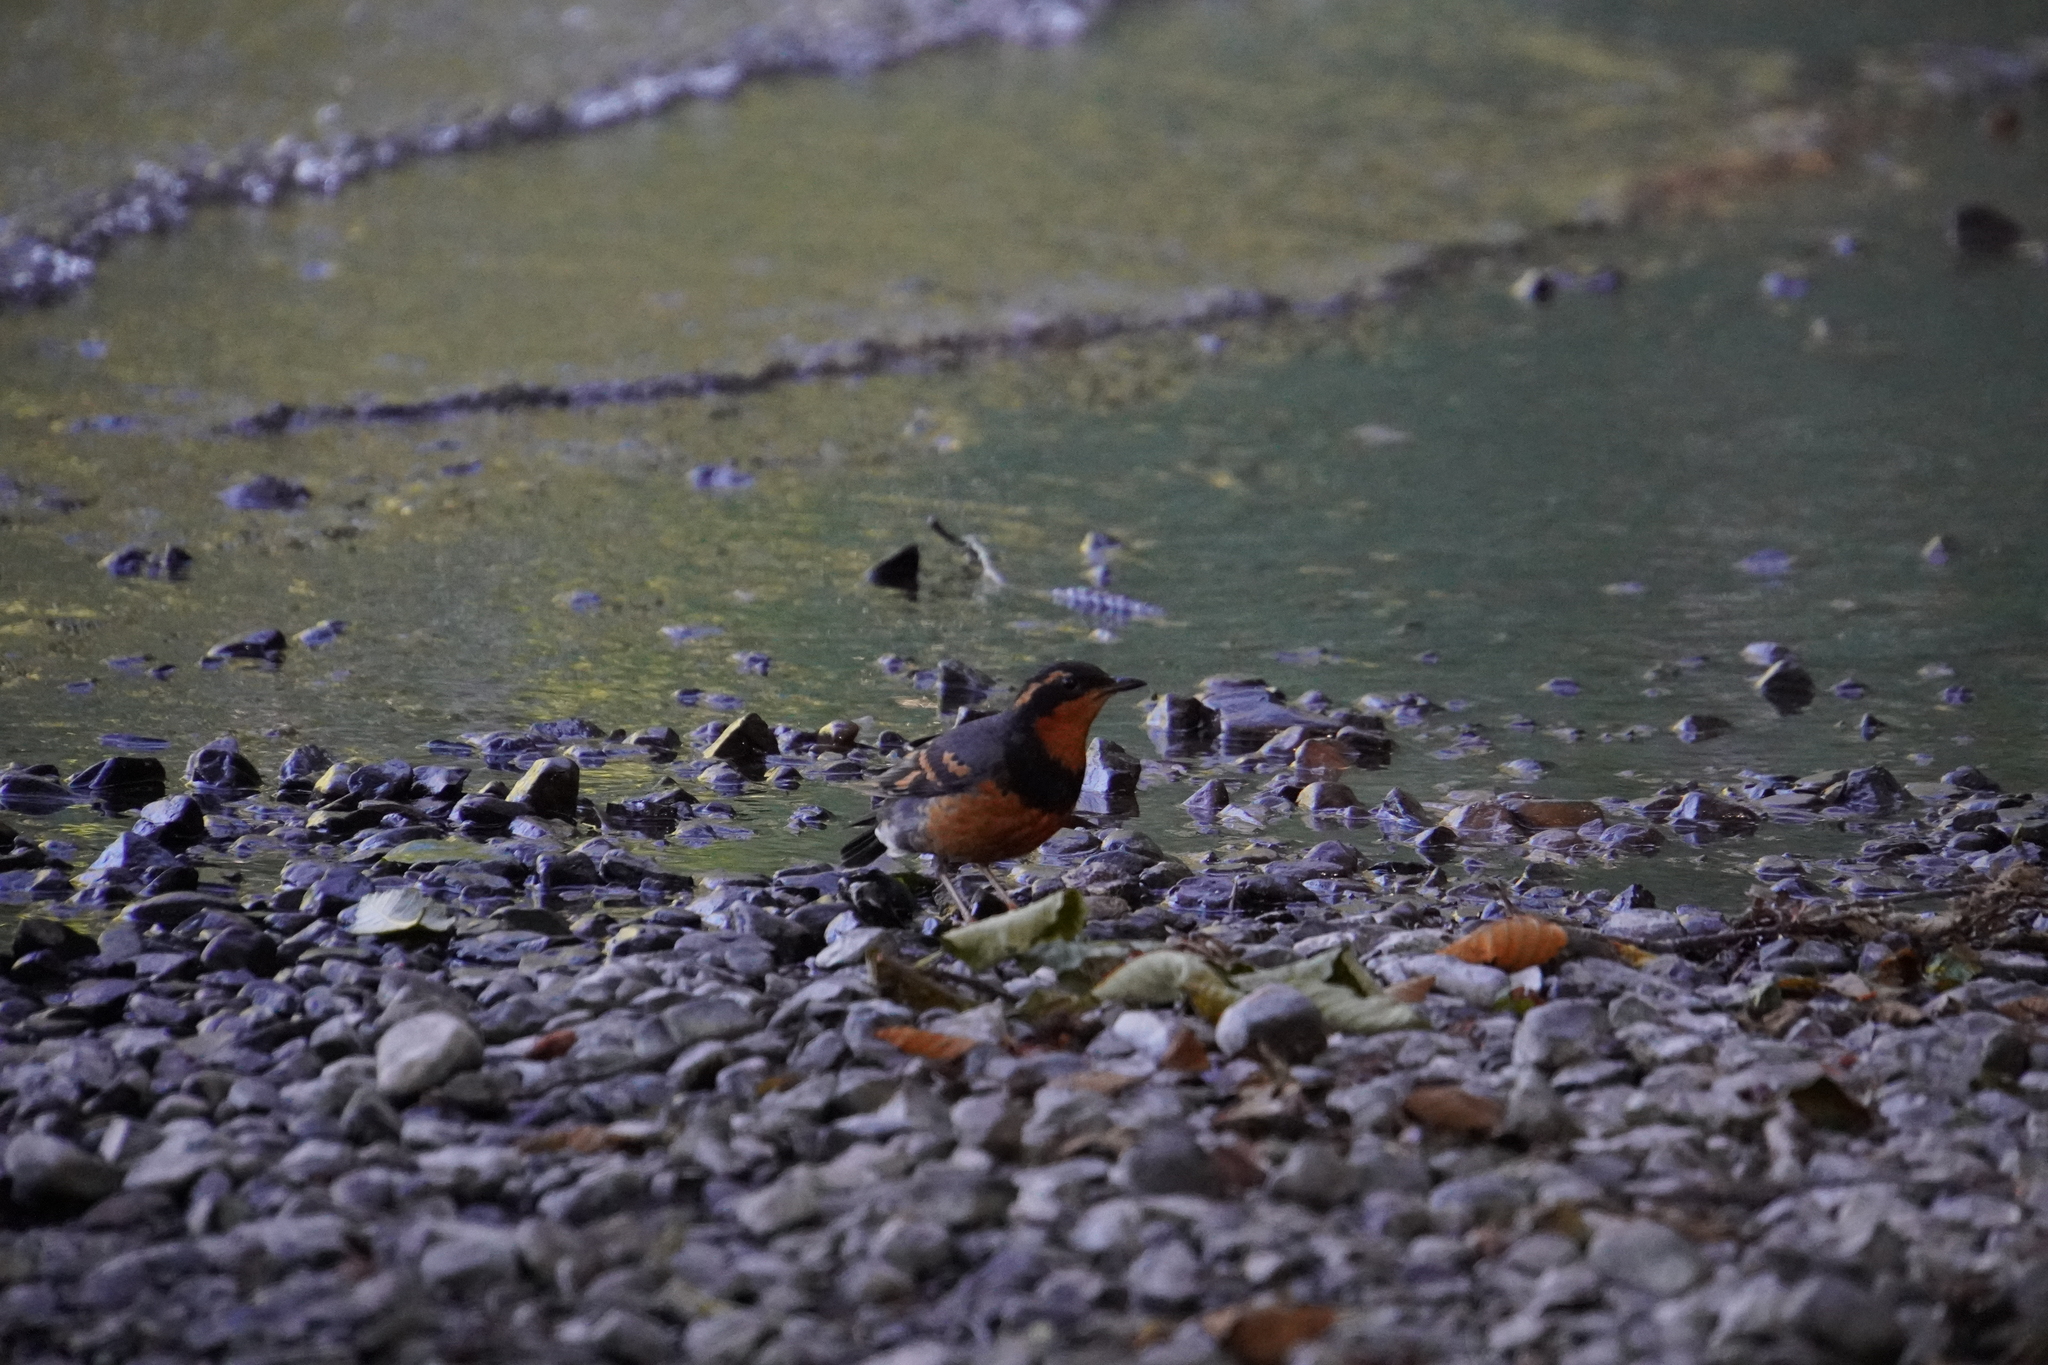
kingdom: Animalia
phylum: Chordata
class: Aves
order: Passeriformes
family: Turdidae
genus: Ixoreus
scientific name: Ixoreus naevius
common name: Varied thrush
